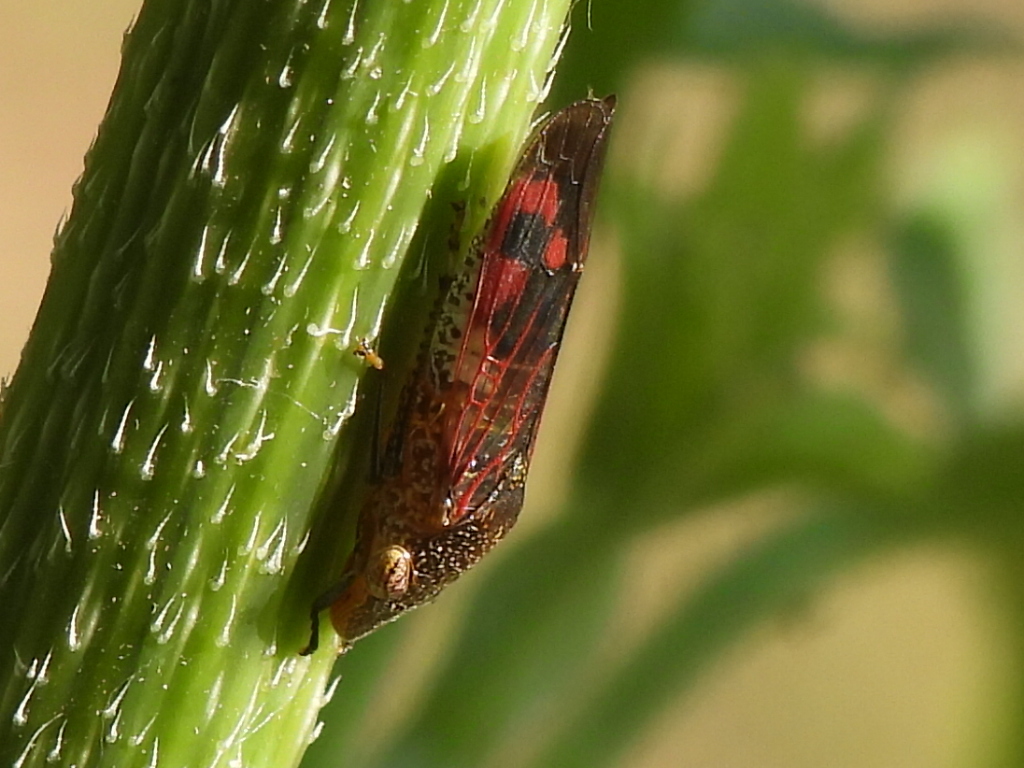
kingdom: Animalia
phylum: Arthropoda
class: Insecta
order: Hemiptera
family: Cicadellidae
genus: Homalodisca
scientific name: Homalodisca vitripennis
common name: Glassy-winged sharpshooter
